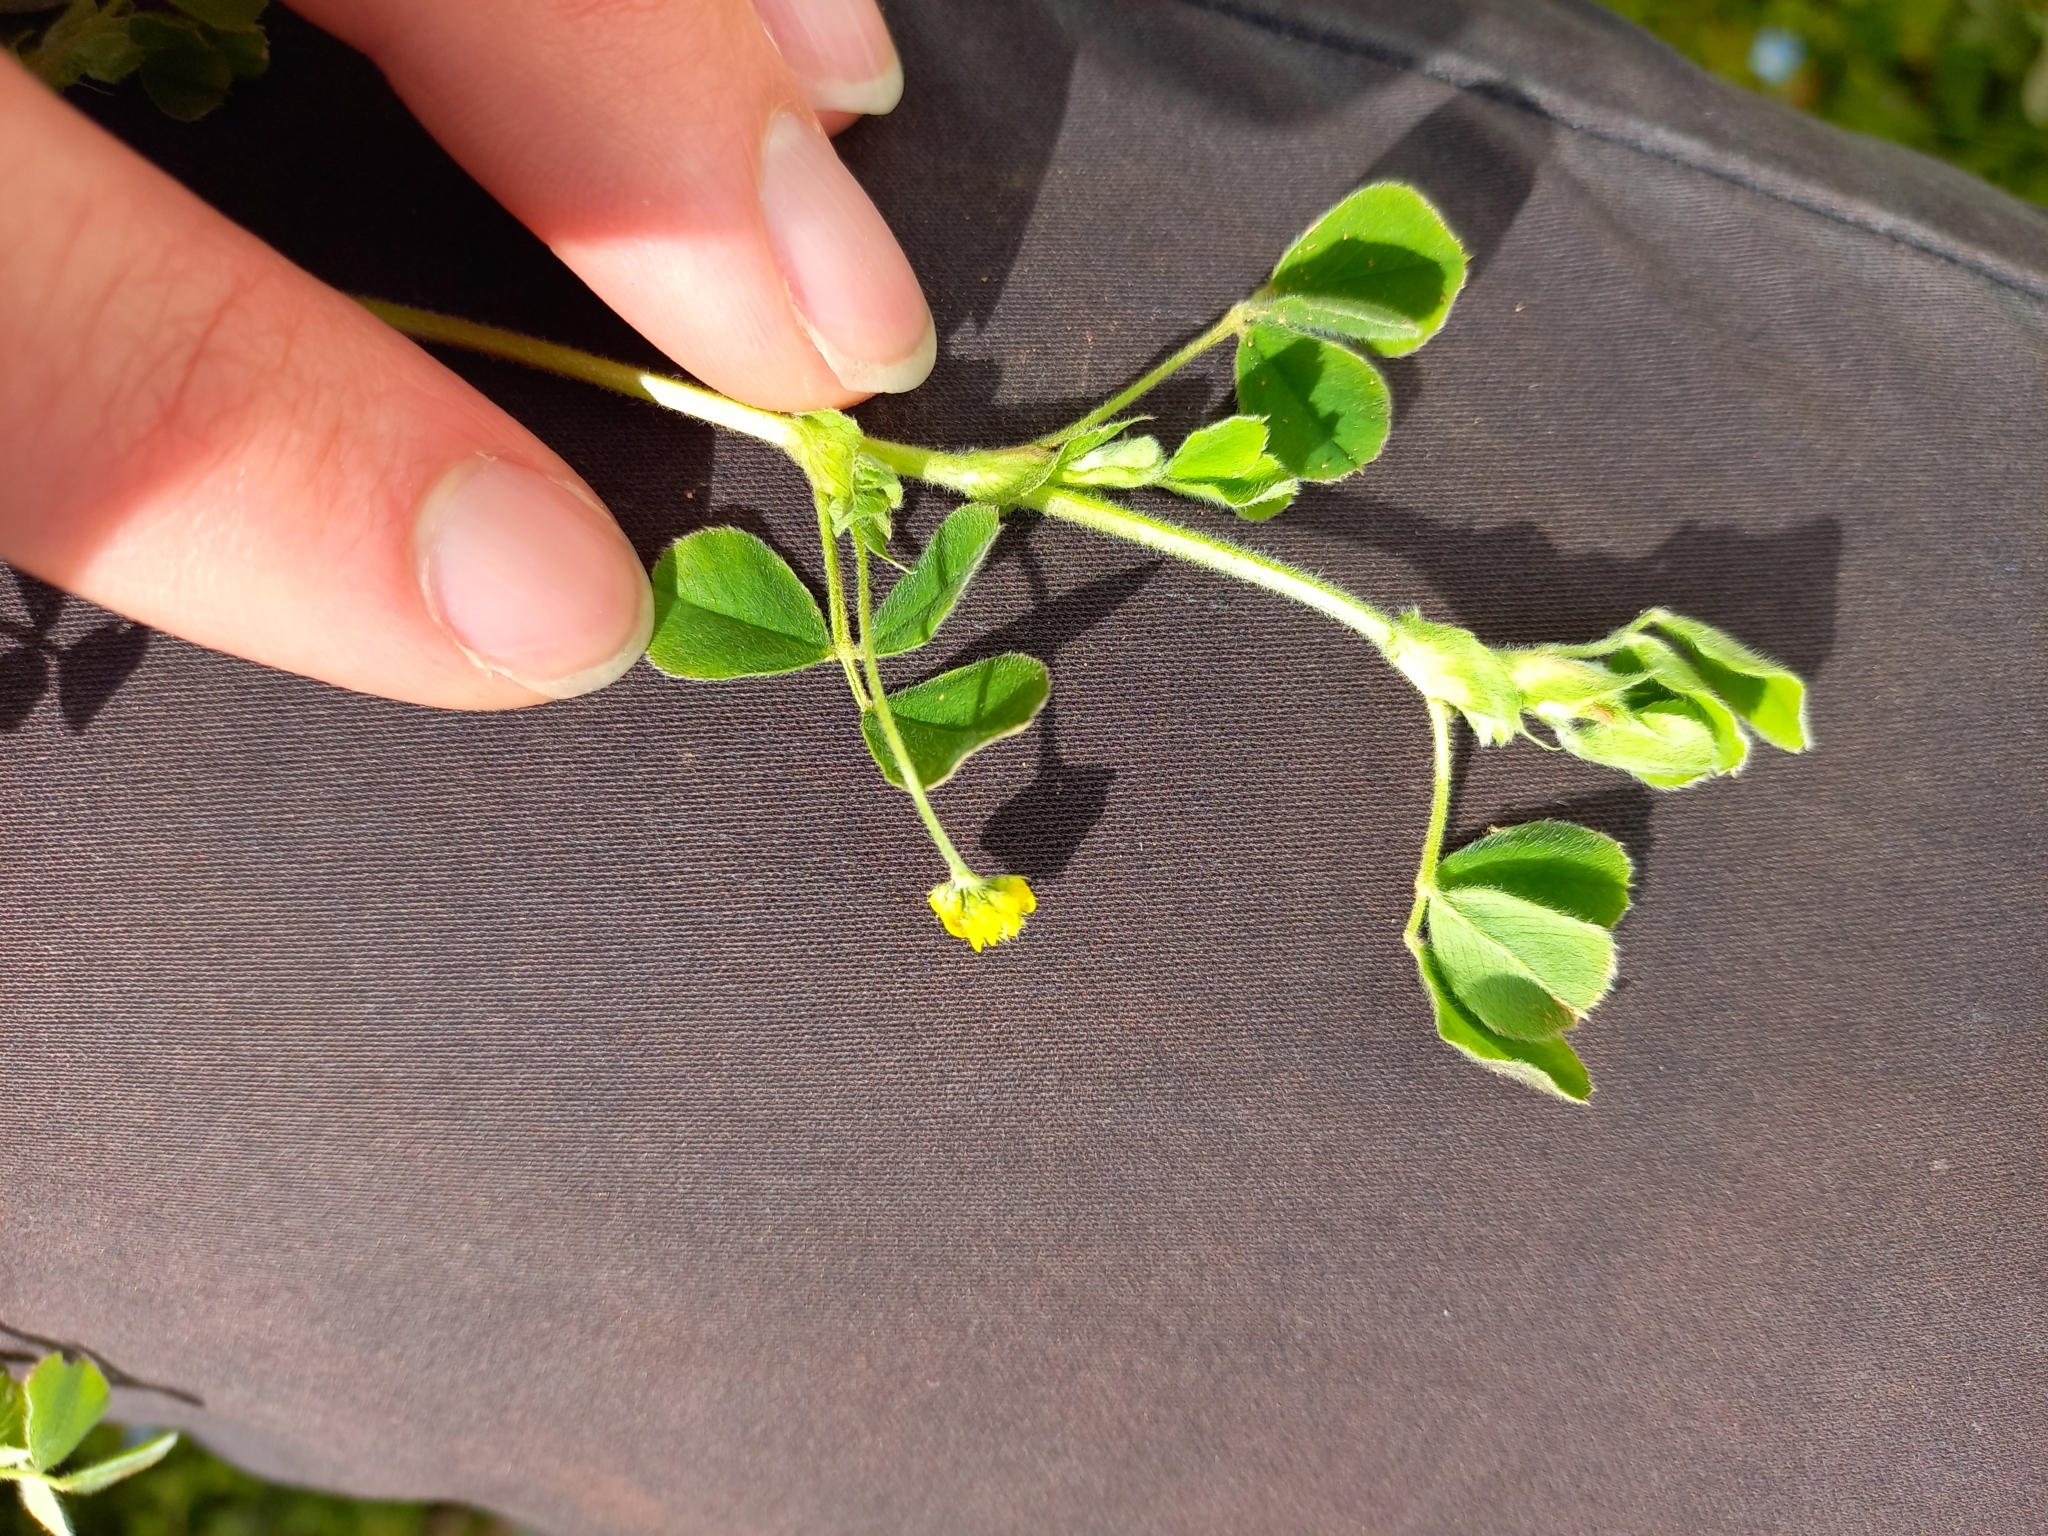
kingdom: Plantae
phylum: Tracheophyta
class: Magnoliopsida
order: Fabales
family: Fabaceae
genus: Medicago
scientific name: Medicago lupulina
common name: Black medick
